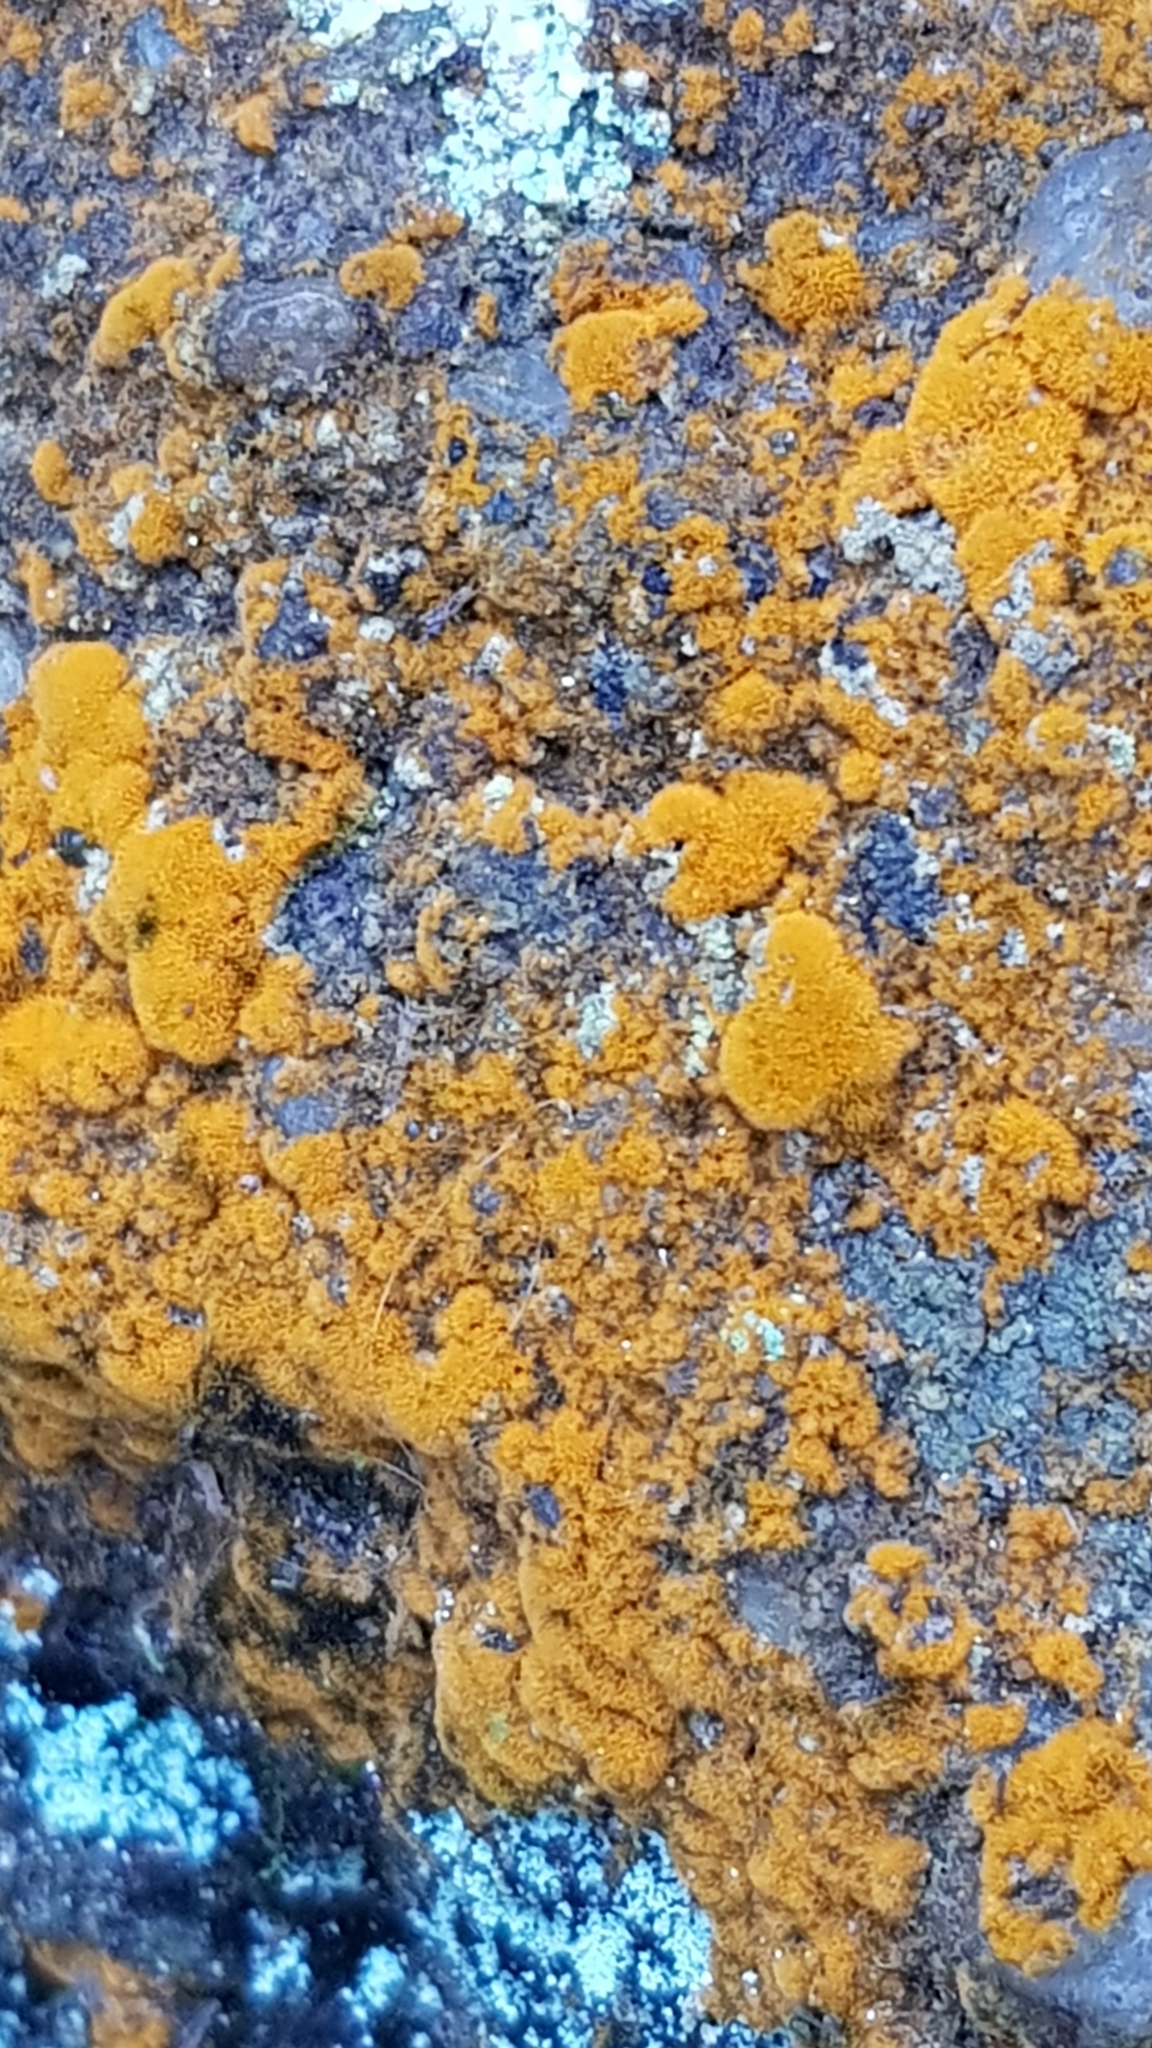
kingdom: Plantae
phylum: Chlorophyta
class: Ulvophyceae
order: Trentepohliales
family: Trentepohliaceae
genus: Trentepohlia
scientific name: Trentepohlia aurea
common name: Orange rock hair
